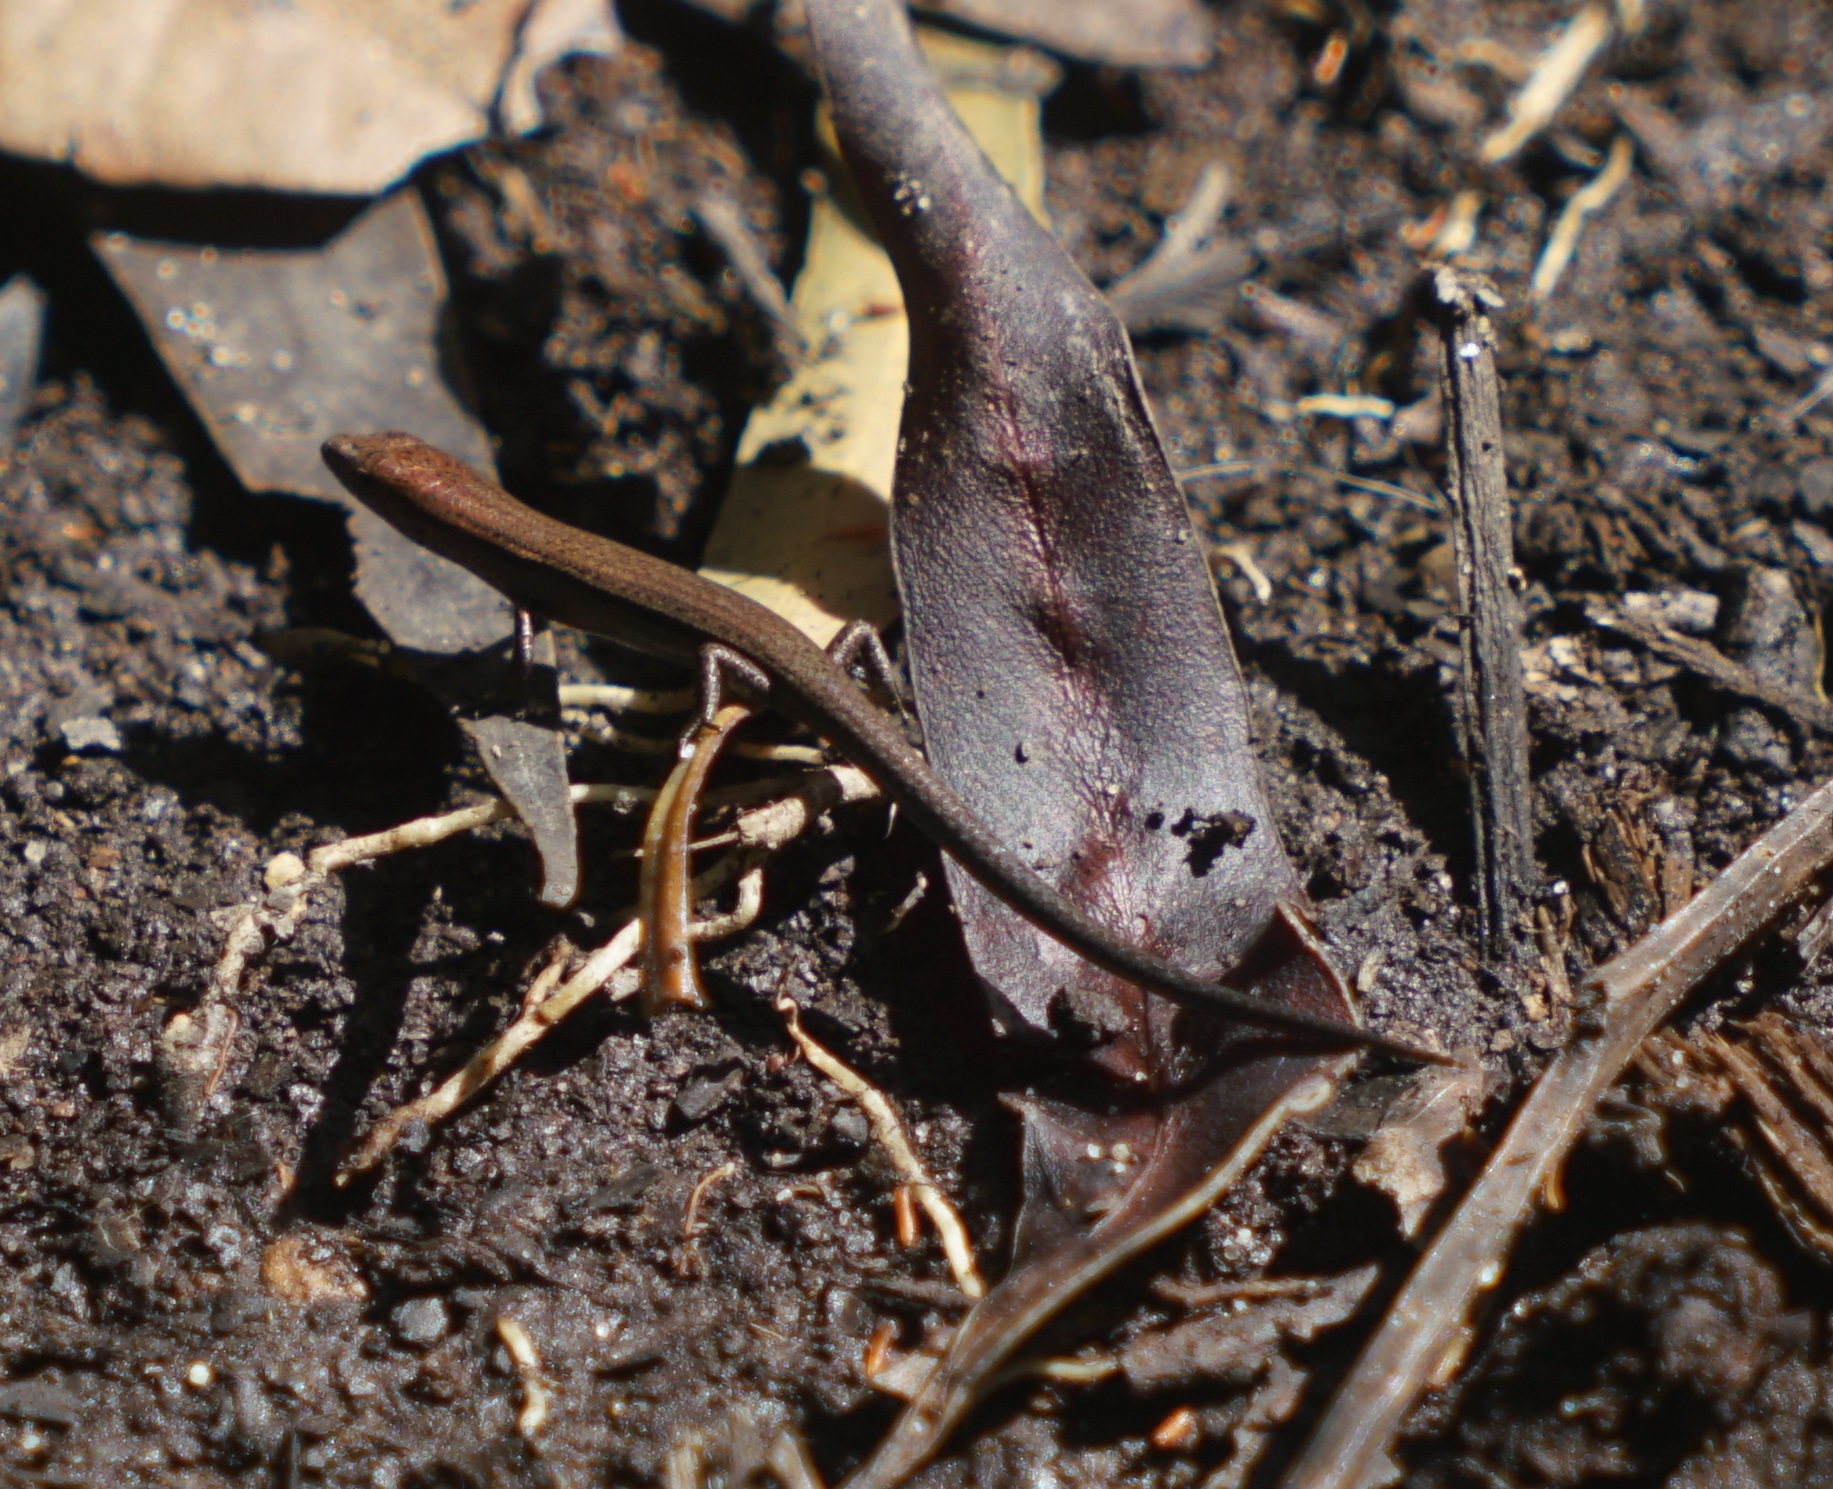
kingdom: Animalia
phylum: Chordata
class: Squamata
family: Scincidae
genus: Lampropholis
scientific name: Lampropholis delicata
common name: Plague skink
